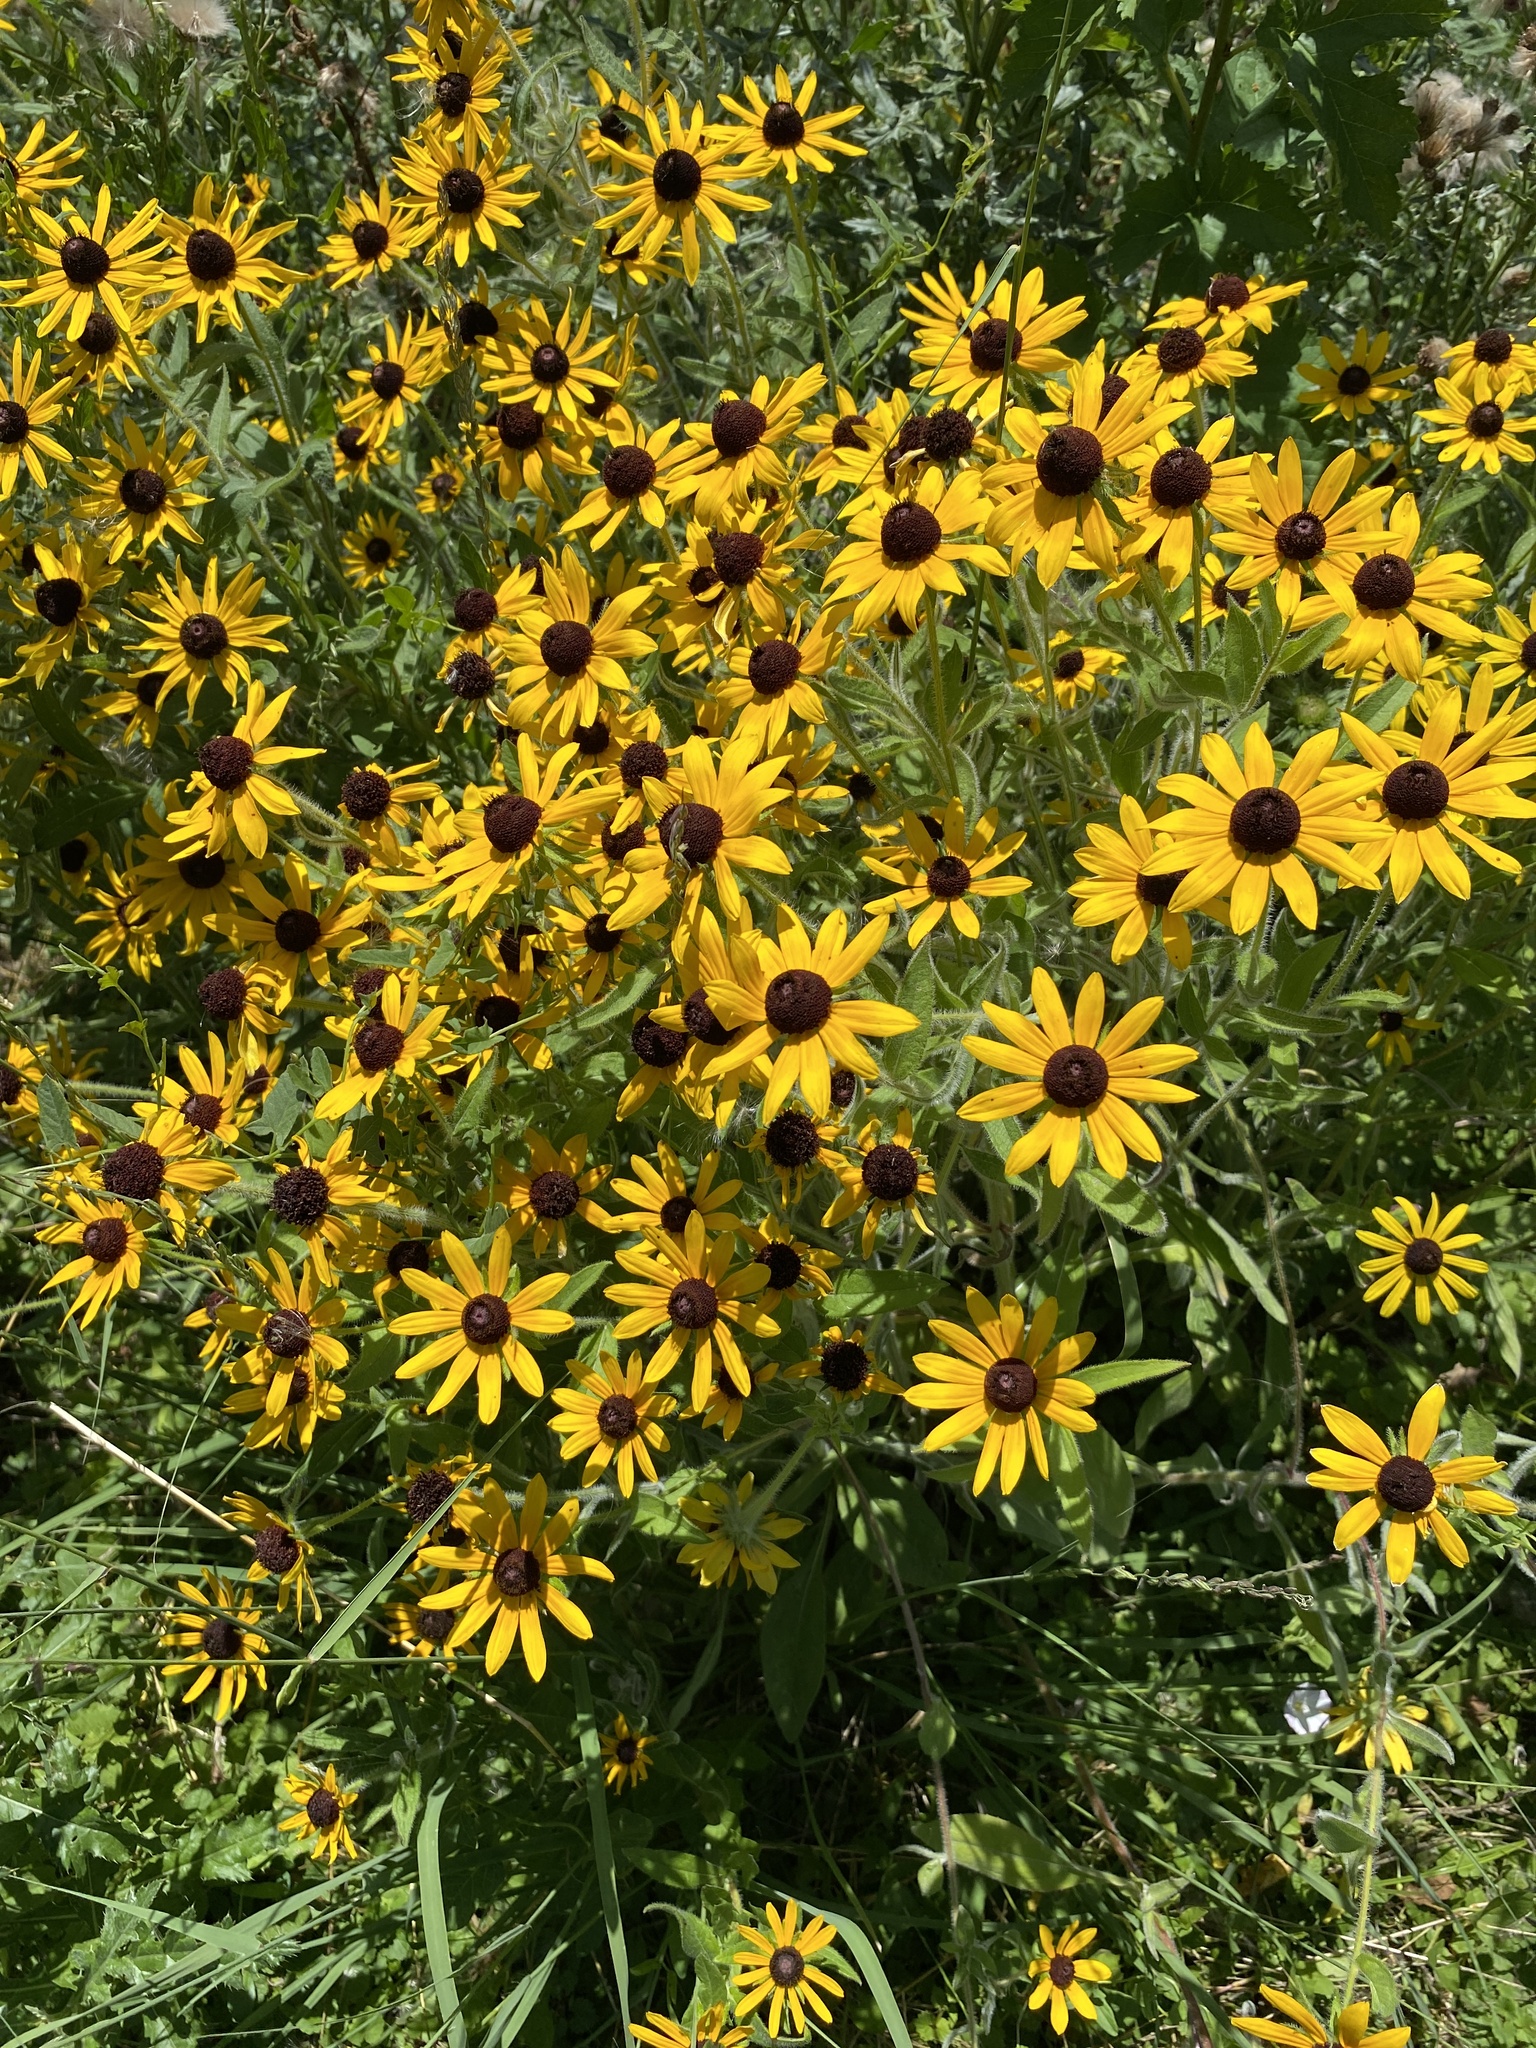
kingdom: Plantae
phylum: Tracheophyta
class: Magnoliopsida
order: Asterales
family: Asteraceae
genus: Rudbeckia
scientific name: Rudbeckia hirta
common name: Black-eyed-susan
